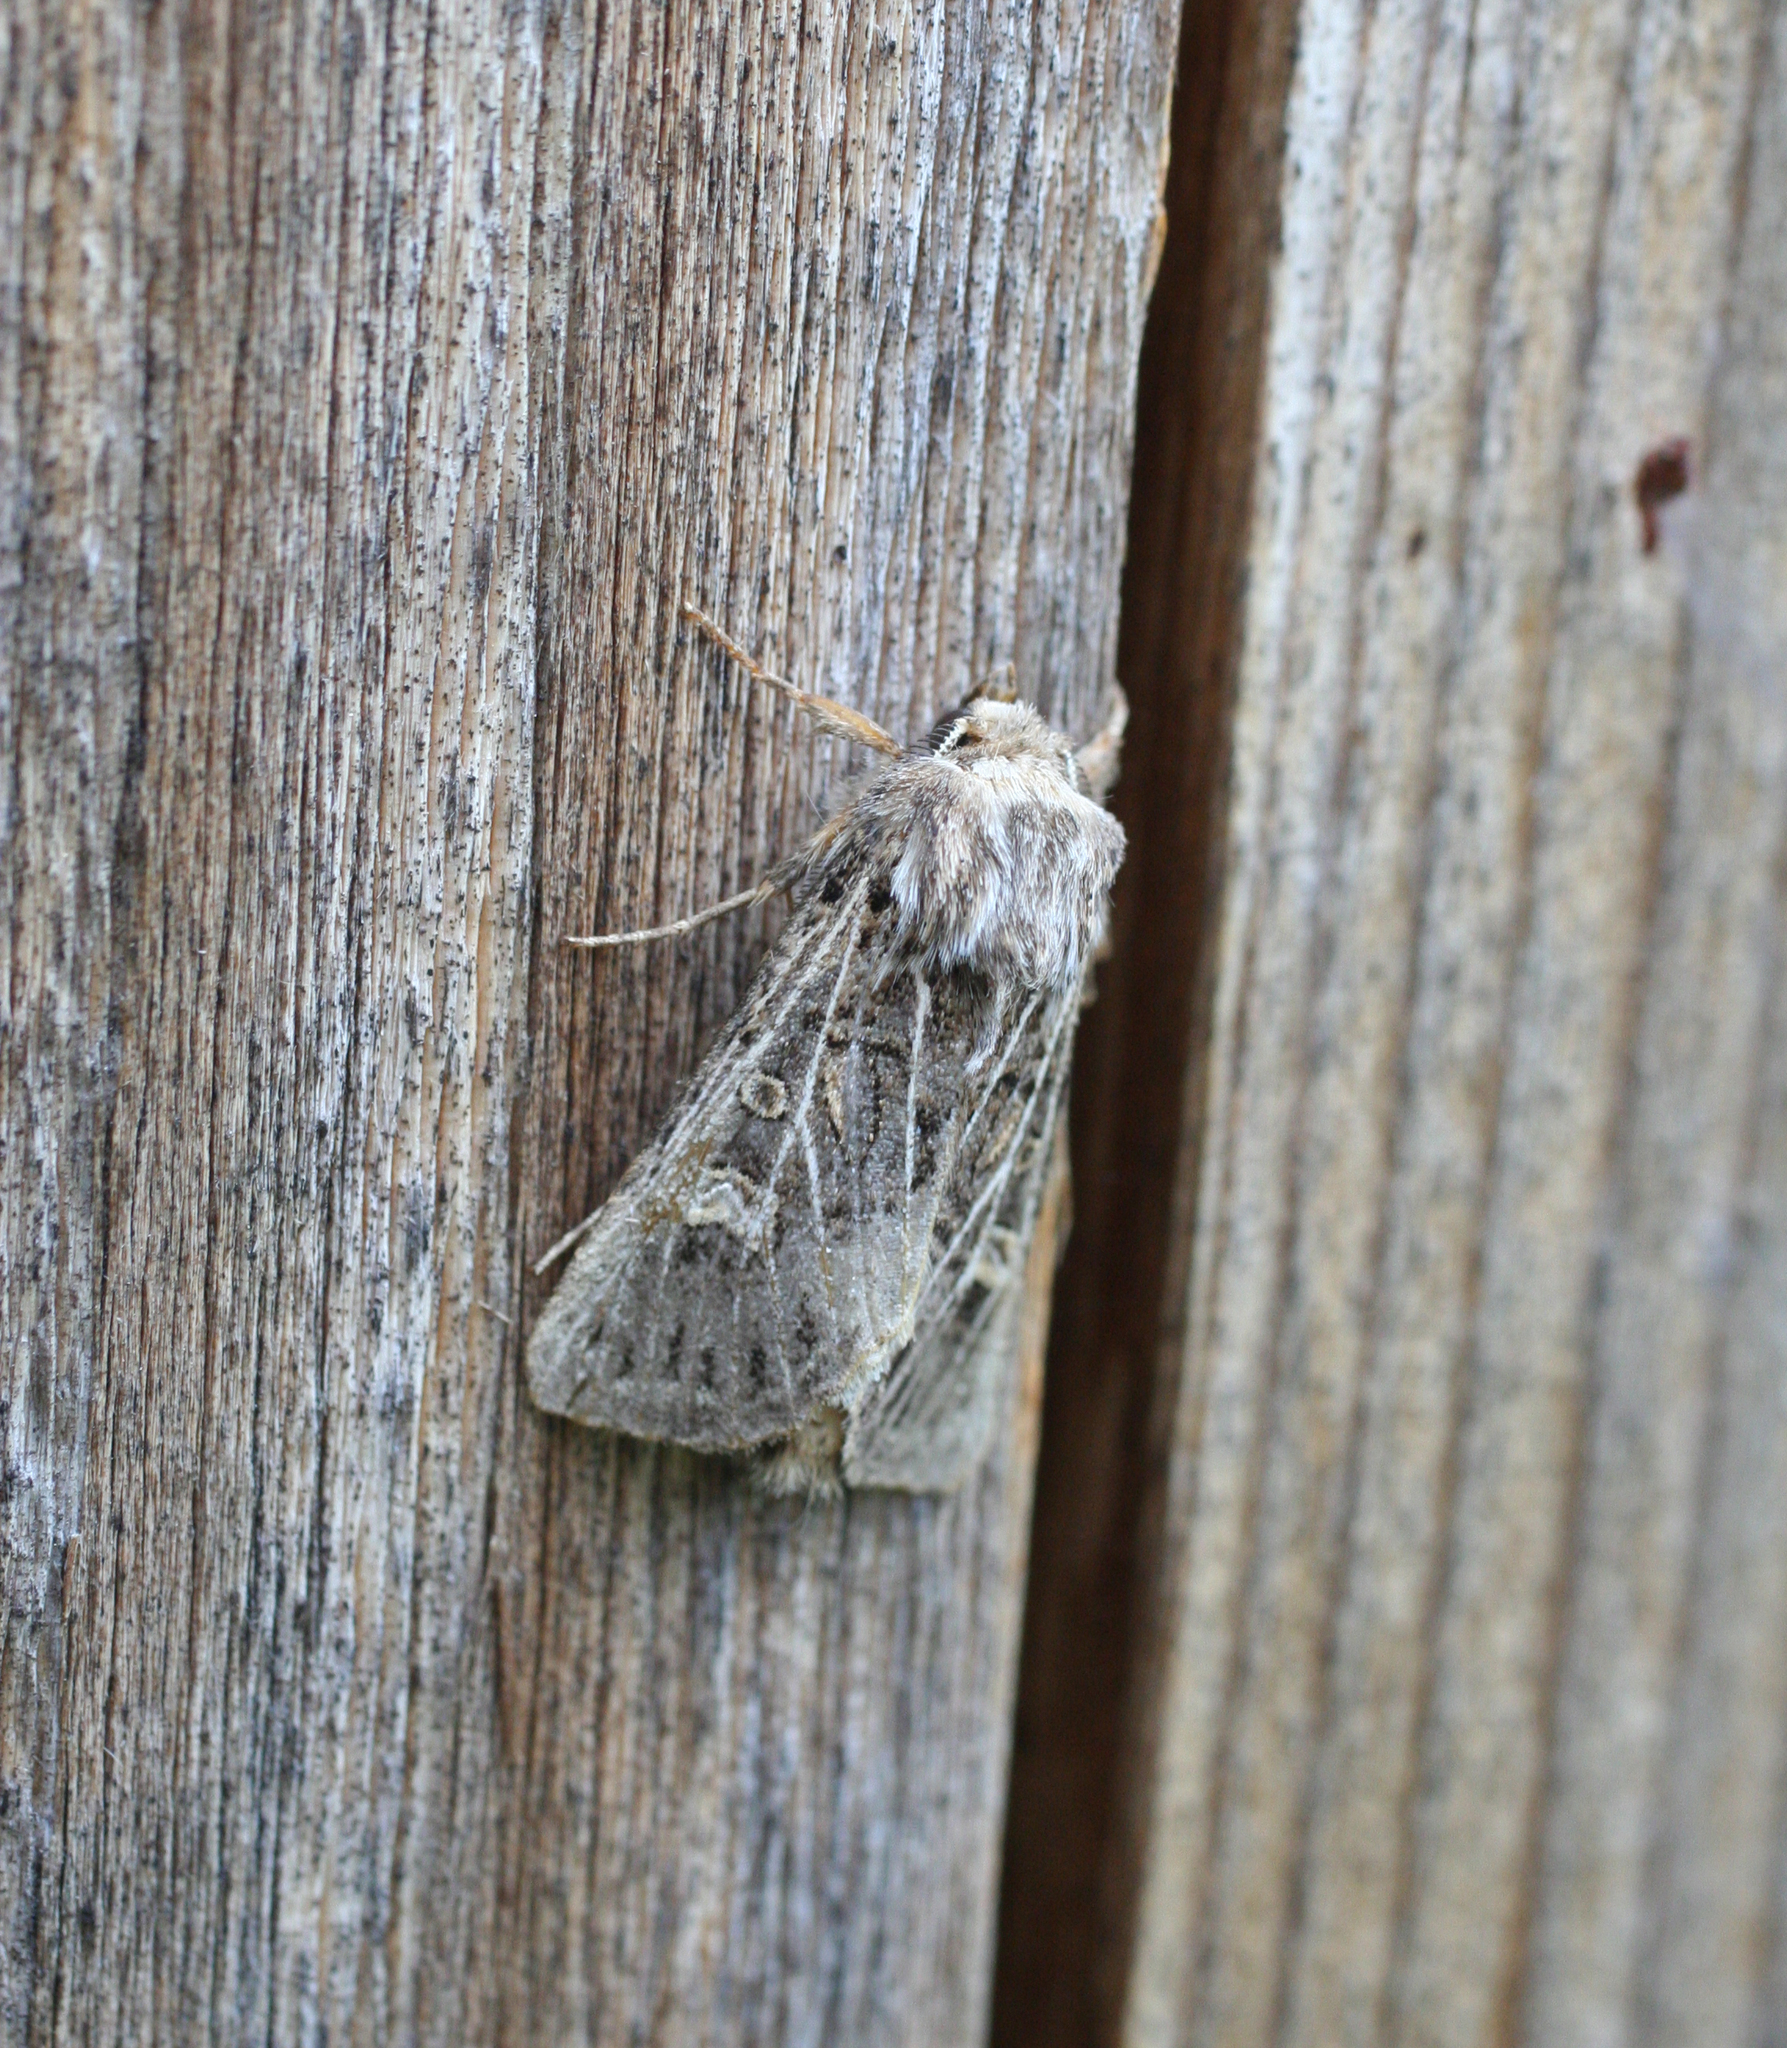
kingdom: Animalia
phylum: Arthropoda
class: Insecta
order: Lepidoptera
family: Noctuidae
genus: Tholera
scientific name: Tholera decimalis
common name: Feathered gothic
